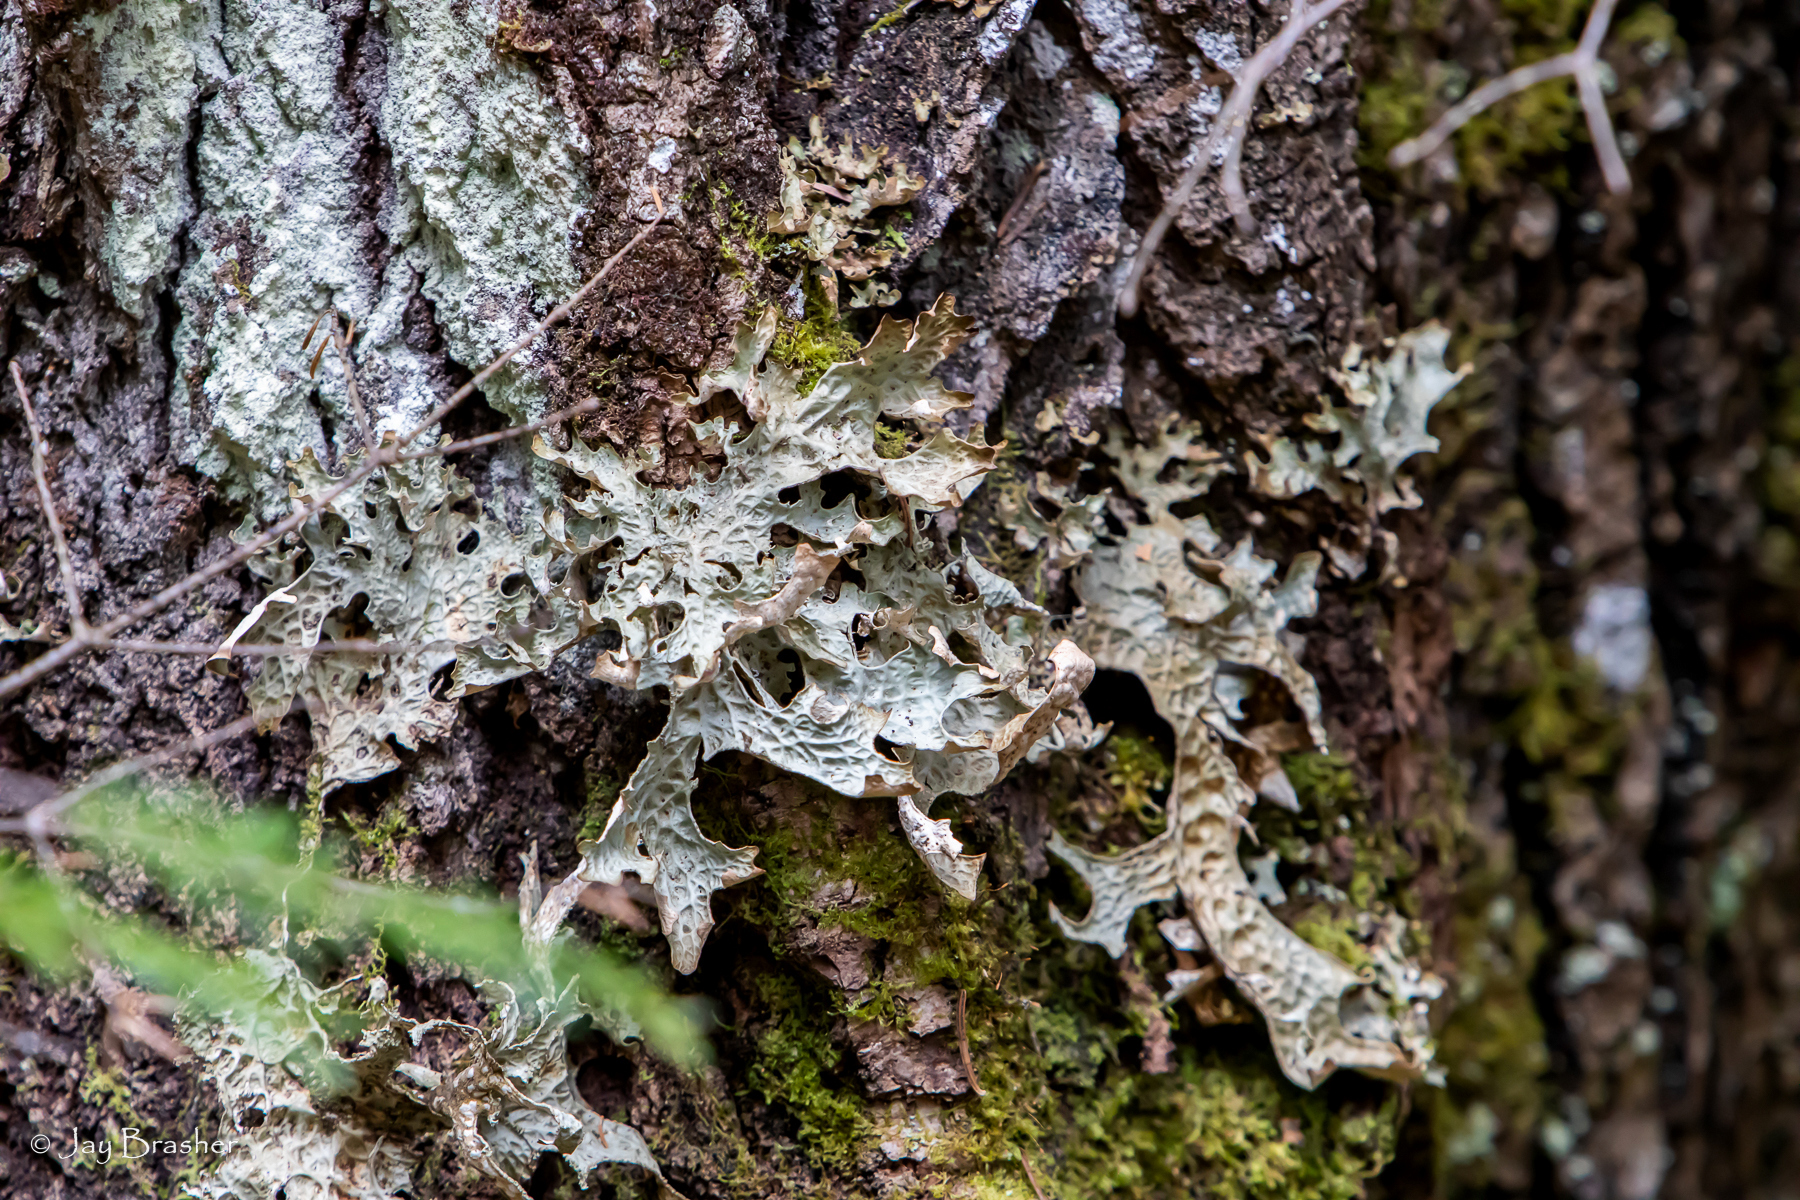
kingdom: Fungi
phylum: Ascomycota
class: Lecanoromycetes
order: Peltigerales
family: Lobariaceae
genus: Lobaria
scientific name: Lobaria pulmonaria
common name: Lungwort
